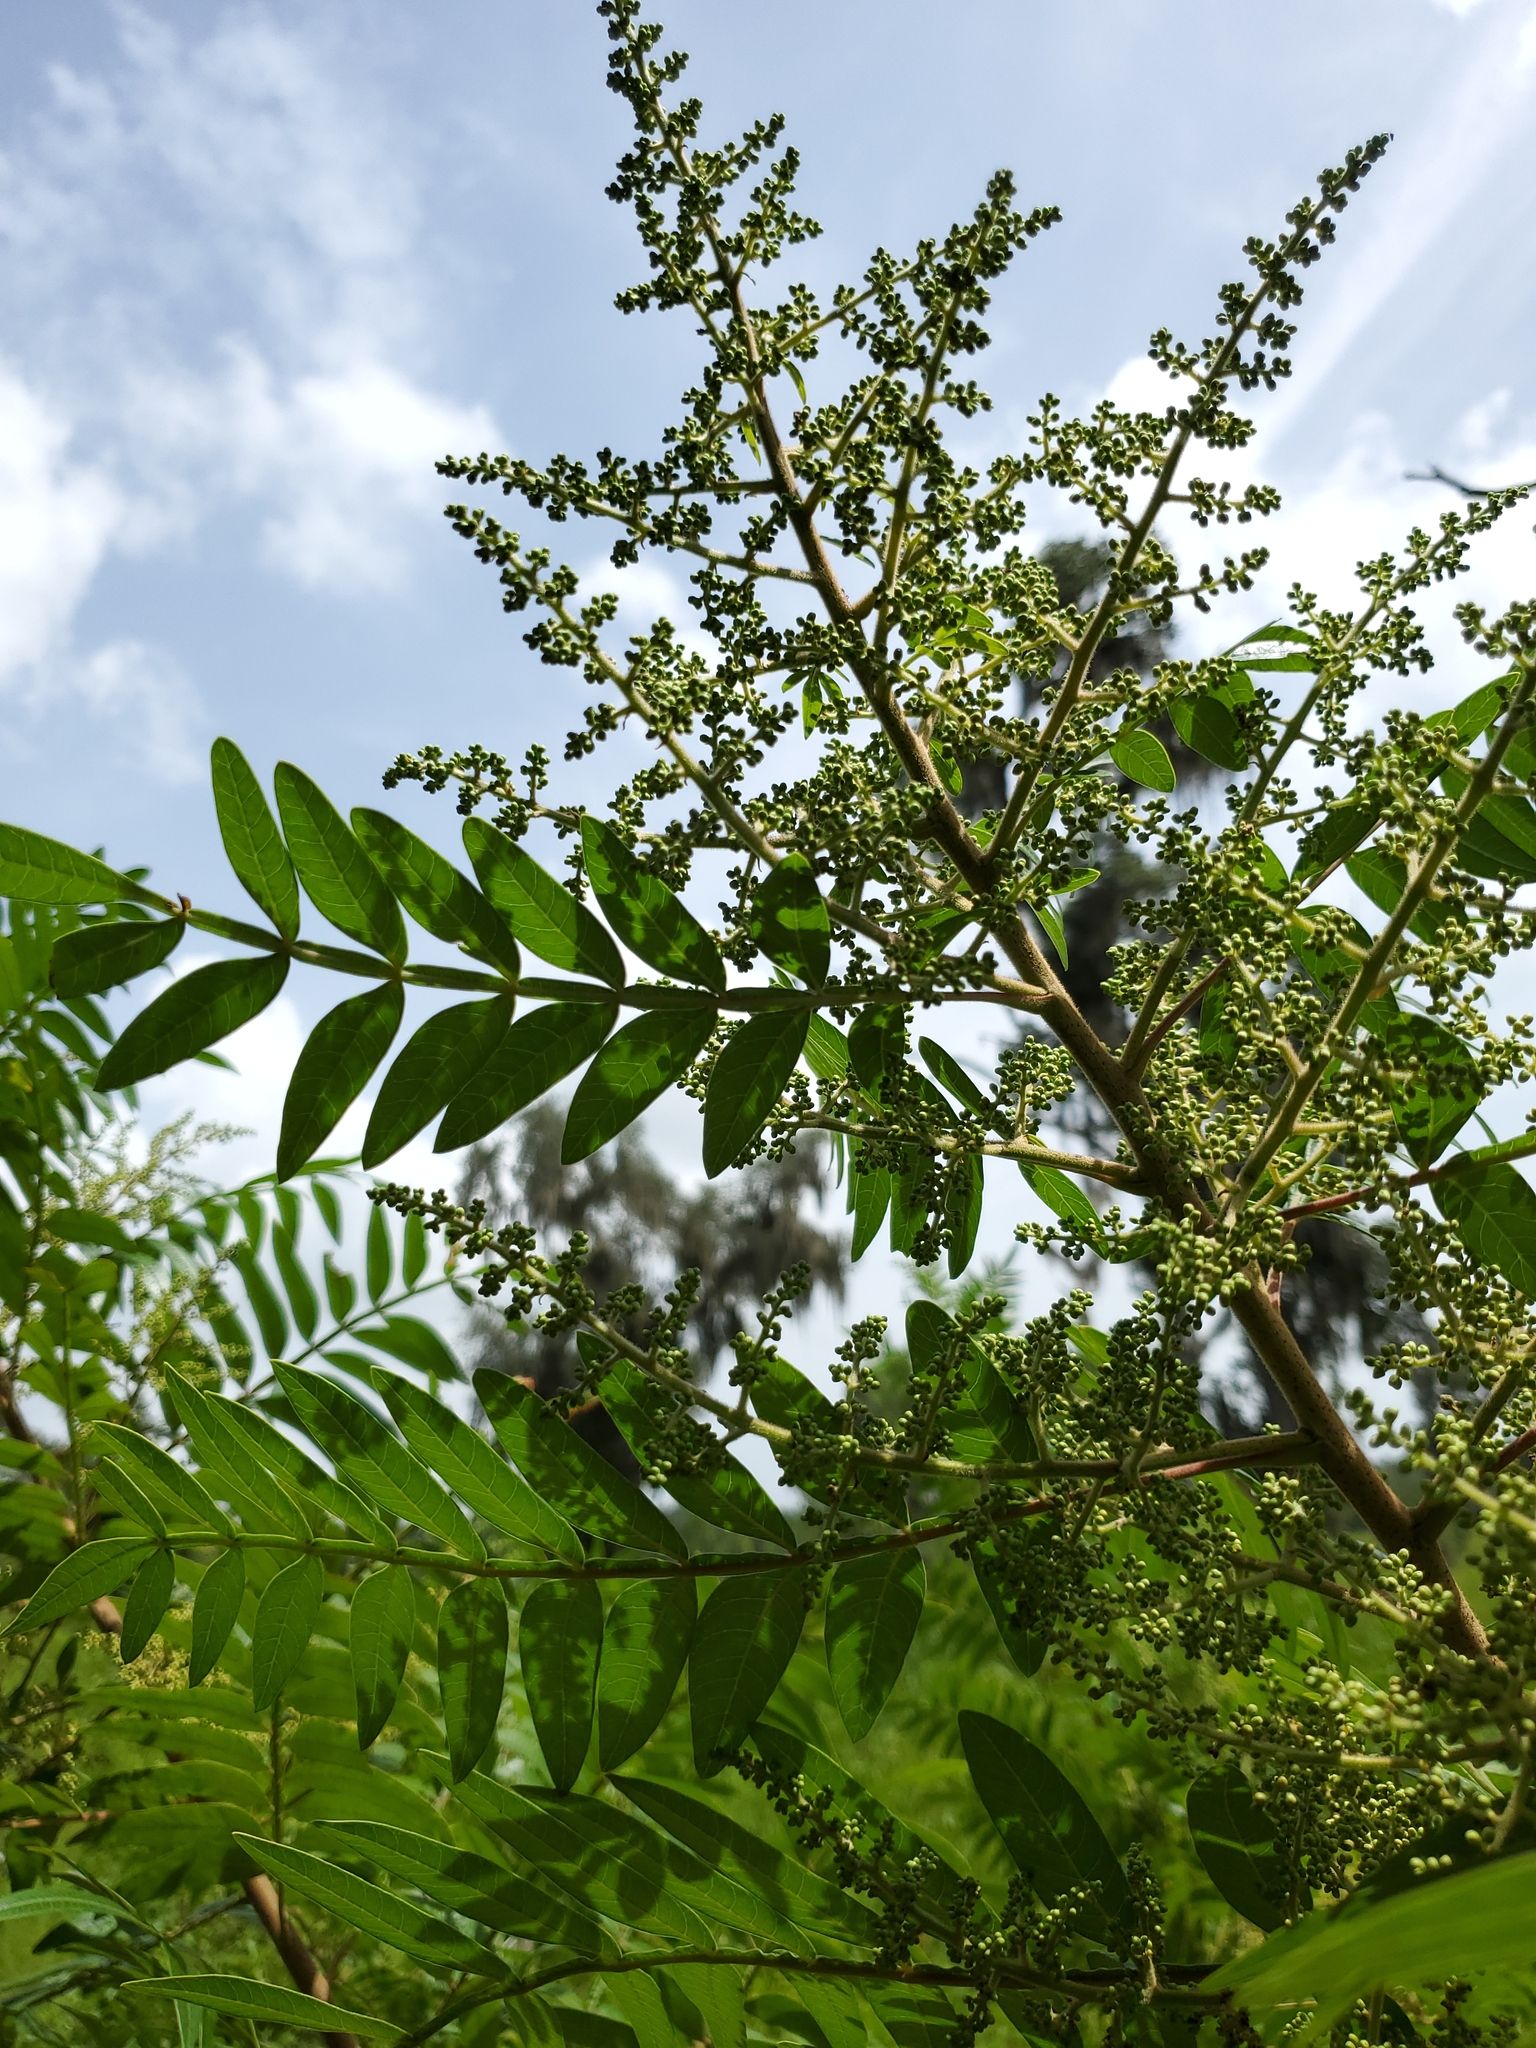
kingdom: Plantae
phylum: Tracheophyta
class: Magnoliopsida
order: Sapindales
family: Anacardiaceae
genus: Rhus
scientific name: Rhus copallina
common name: Shining sumac
